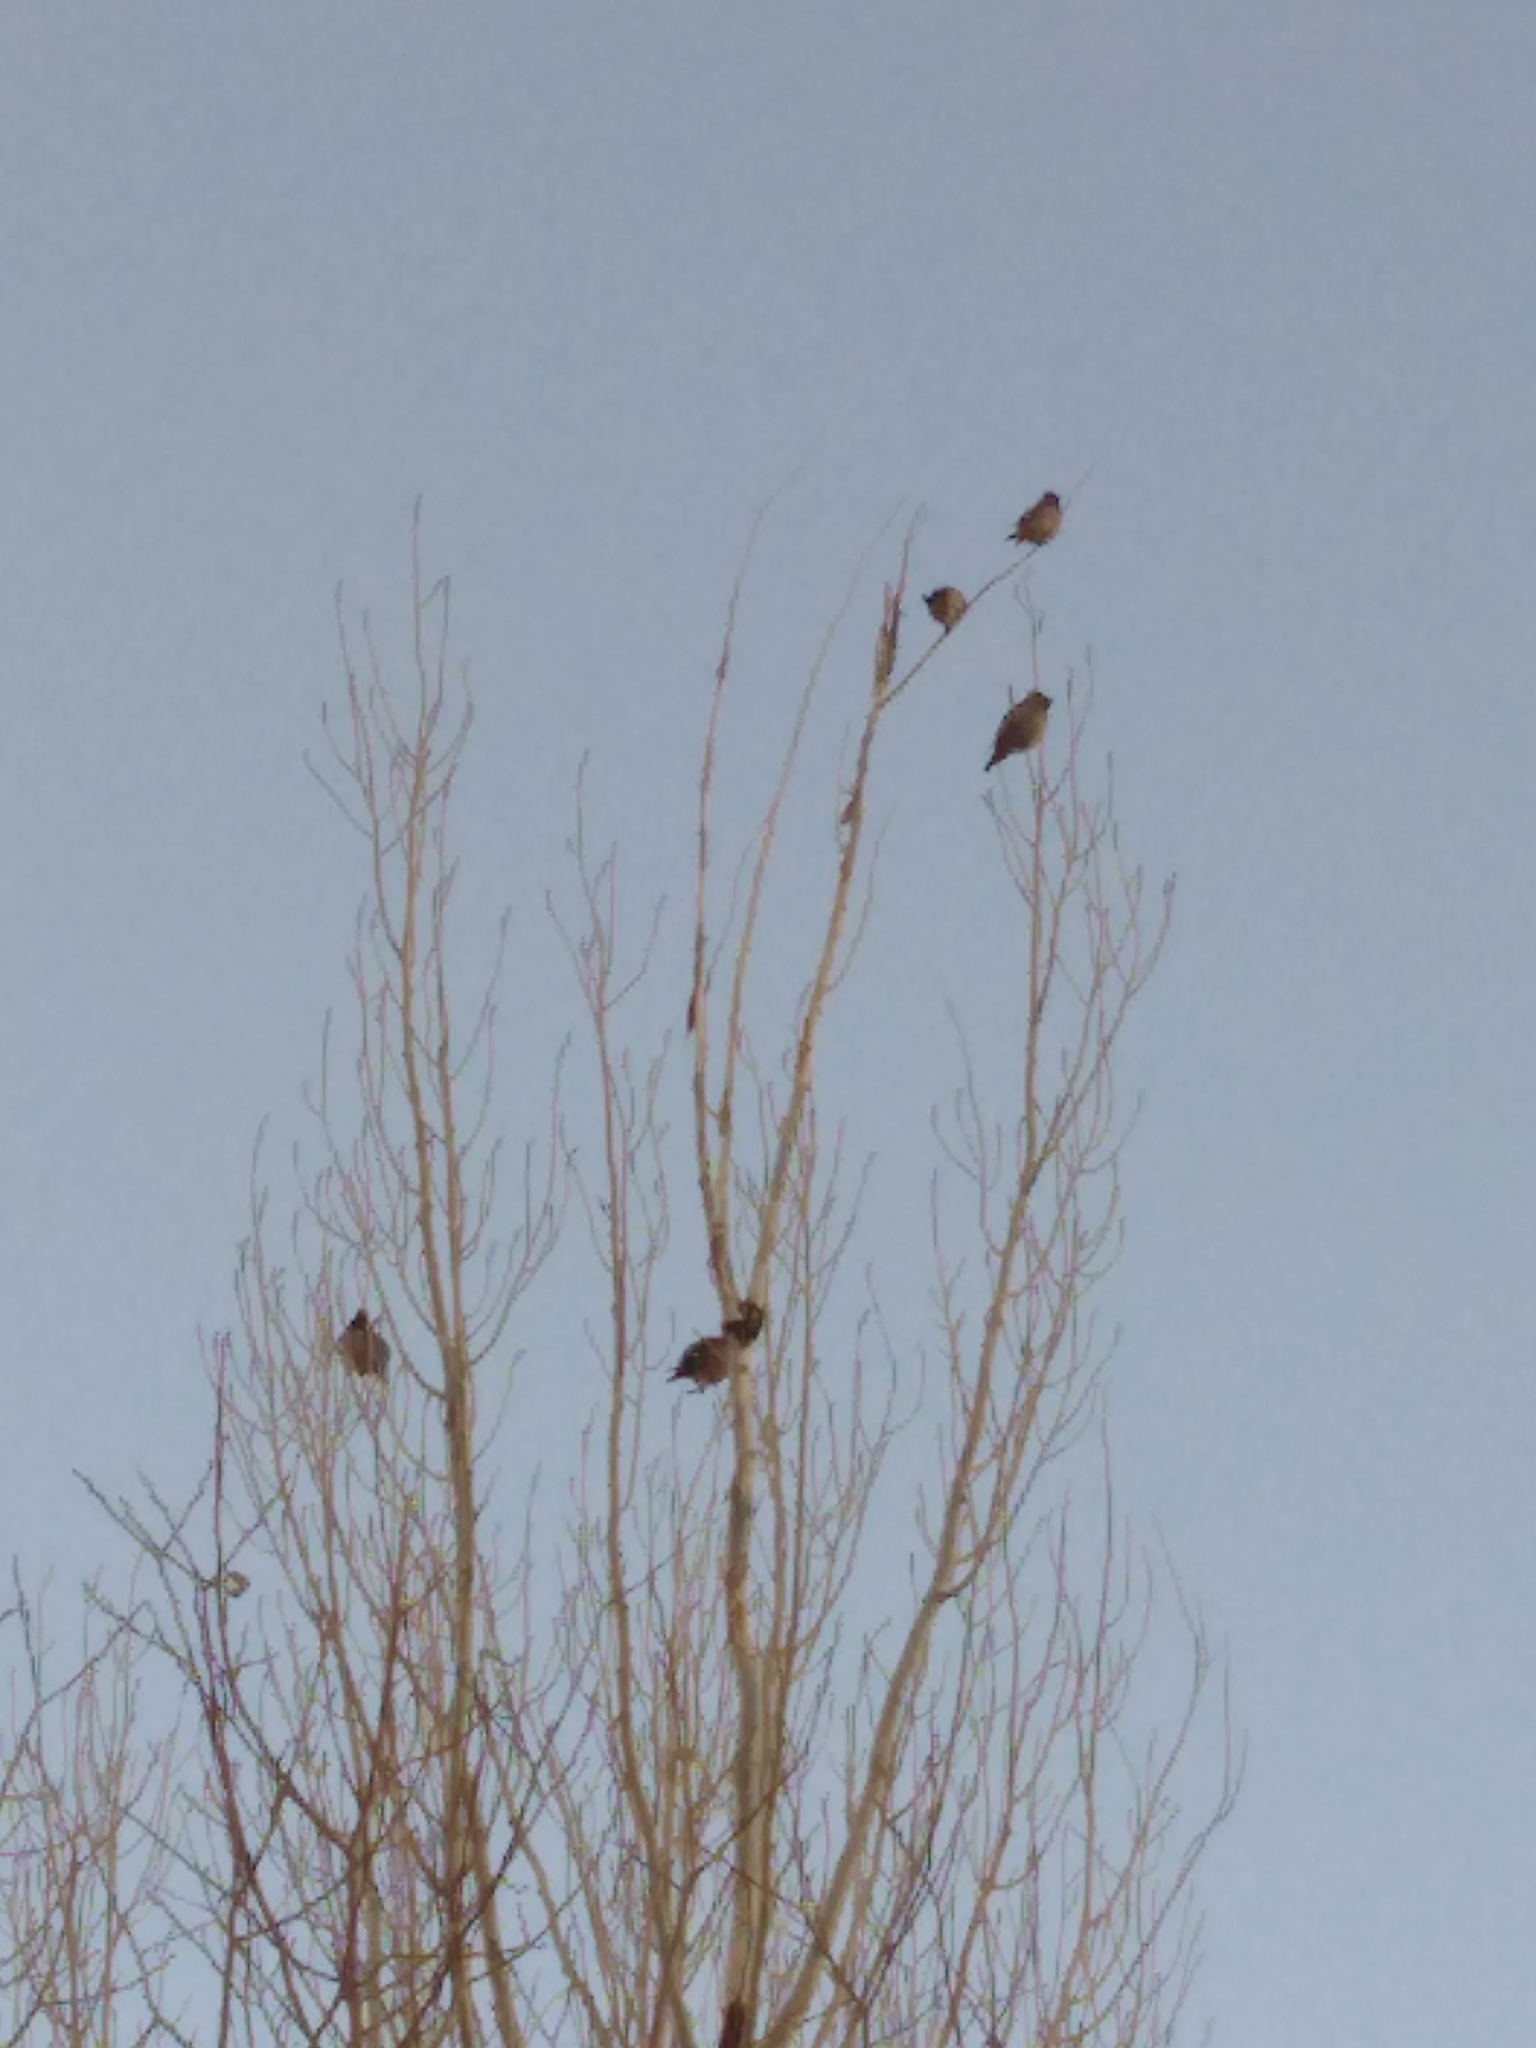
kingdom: Animalia
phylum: Chordata
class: Aves
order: Passeriformes
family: Bombycillidae
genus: Bombycilla
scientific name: Bombycilla garrulus
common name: Bohemian waxwing
